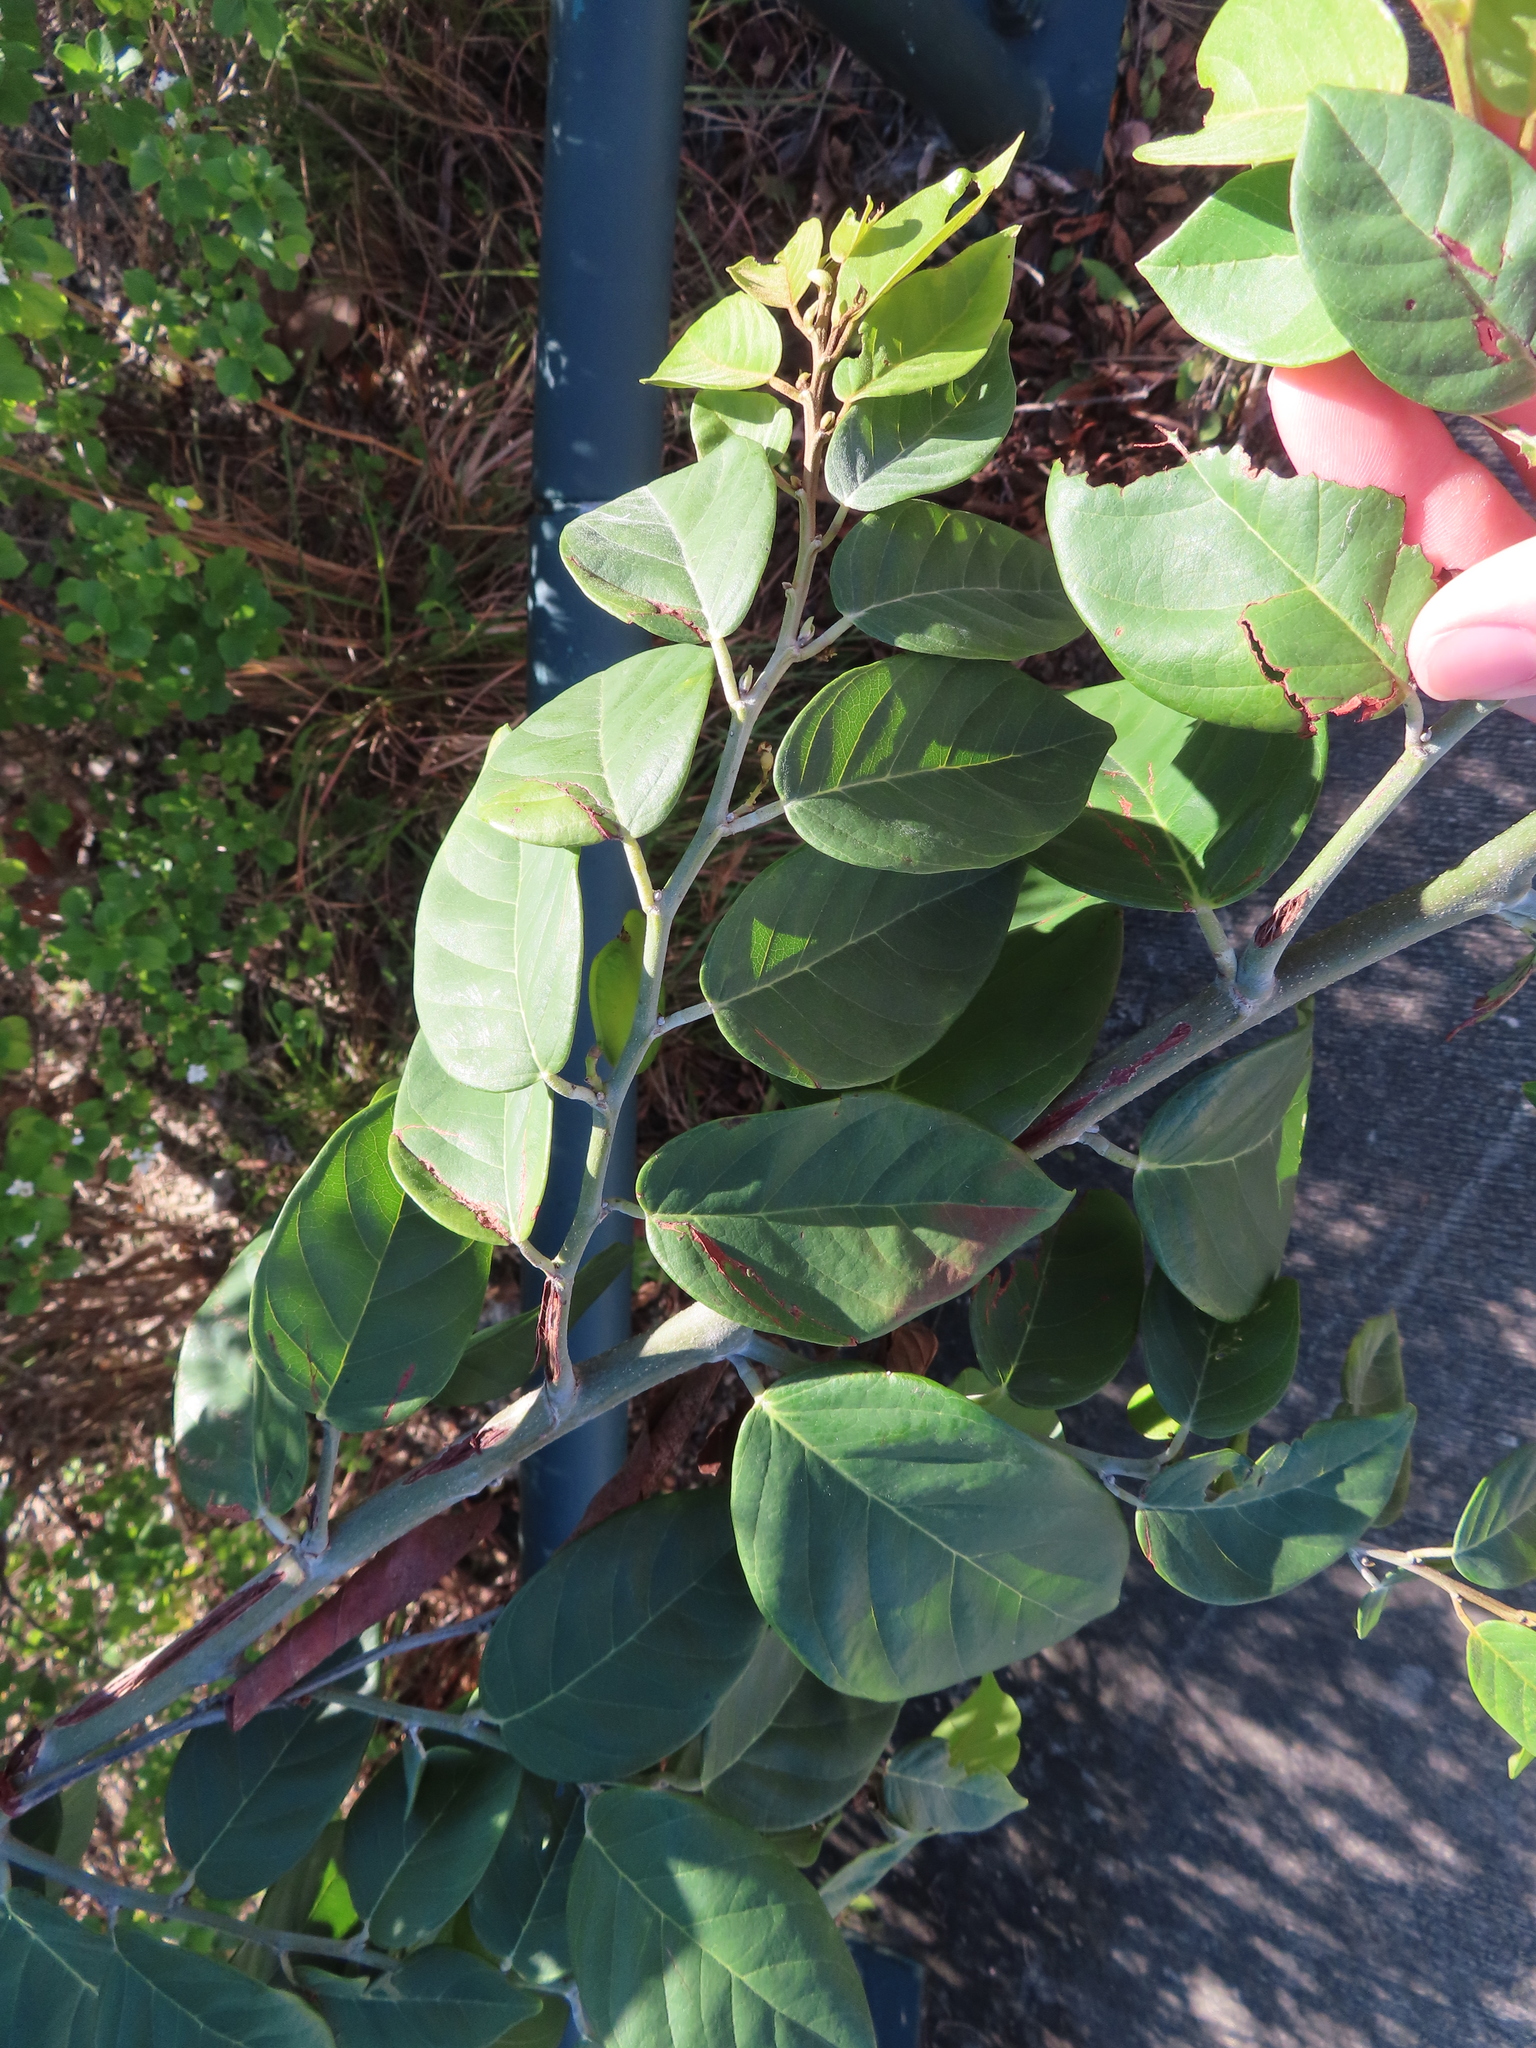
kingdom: Plantae
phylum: Tracheophyta
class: Magnoliopsida
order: Fabales
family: Fabaceae
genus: Dalbergia
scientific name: Dalbergia ecastaphyllum
